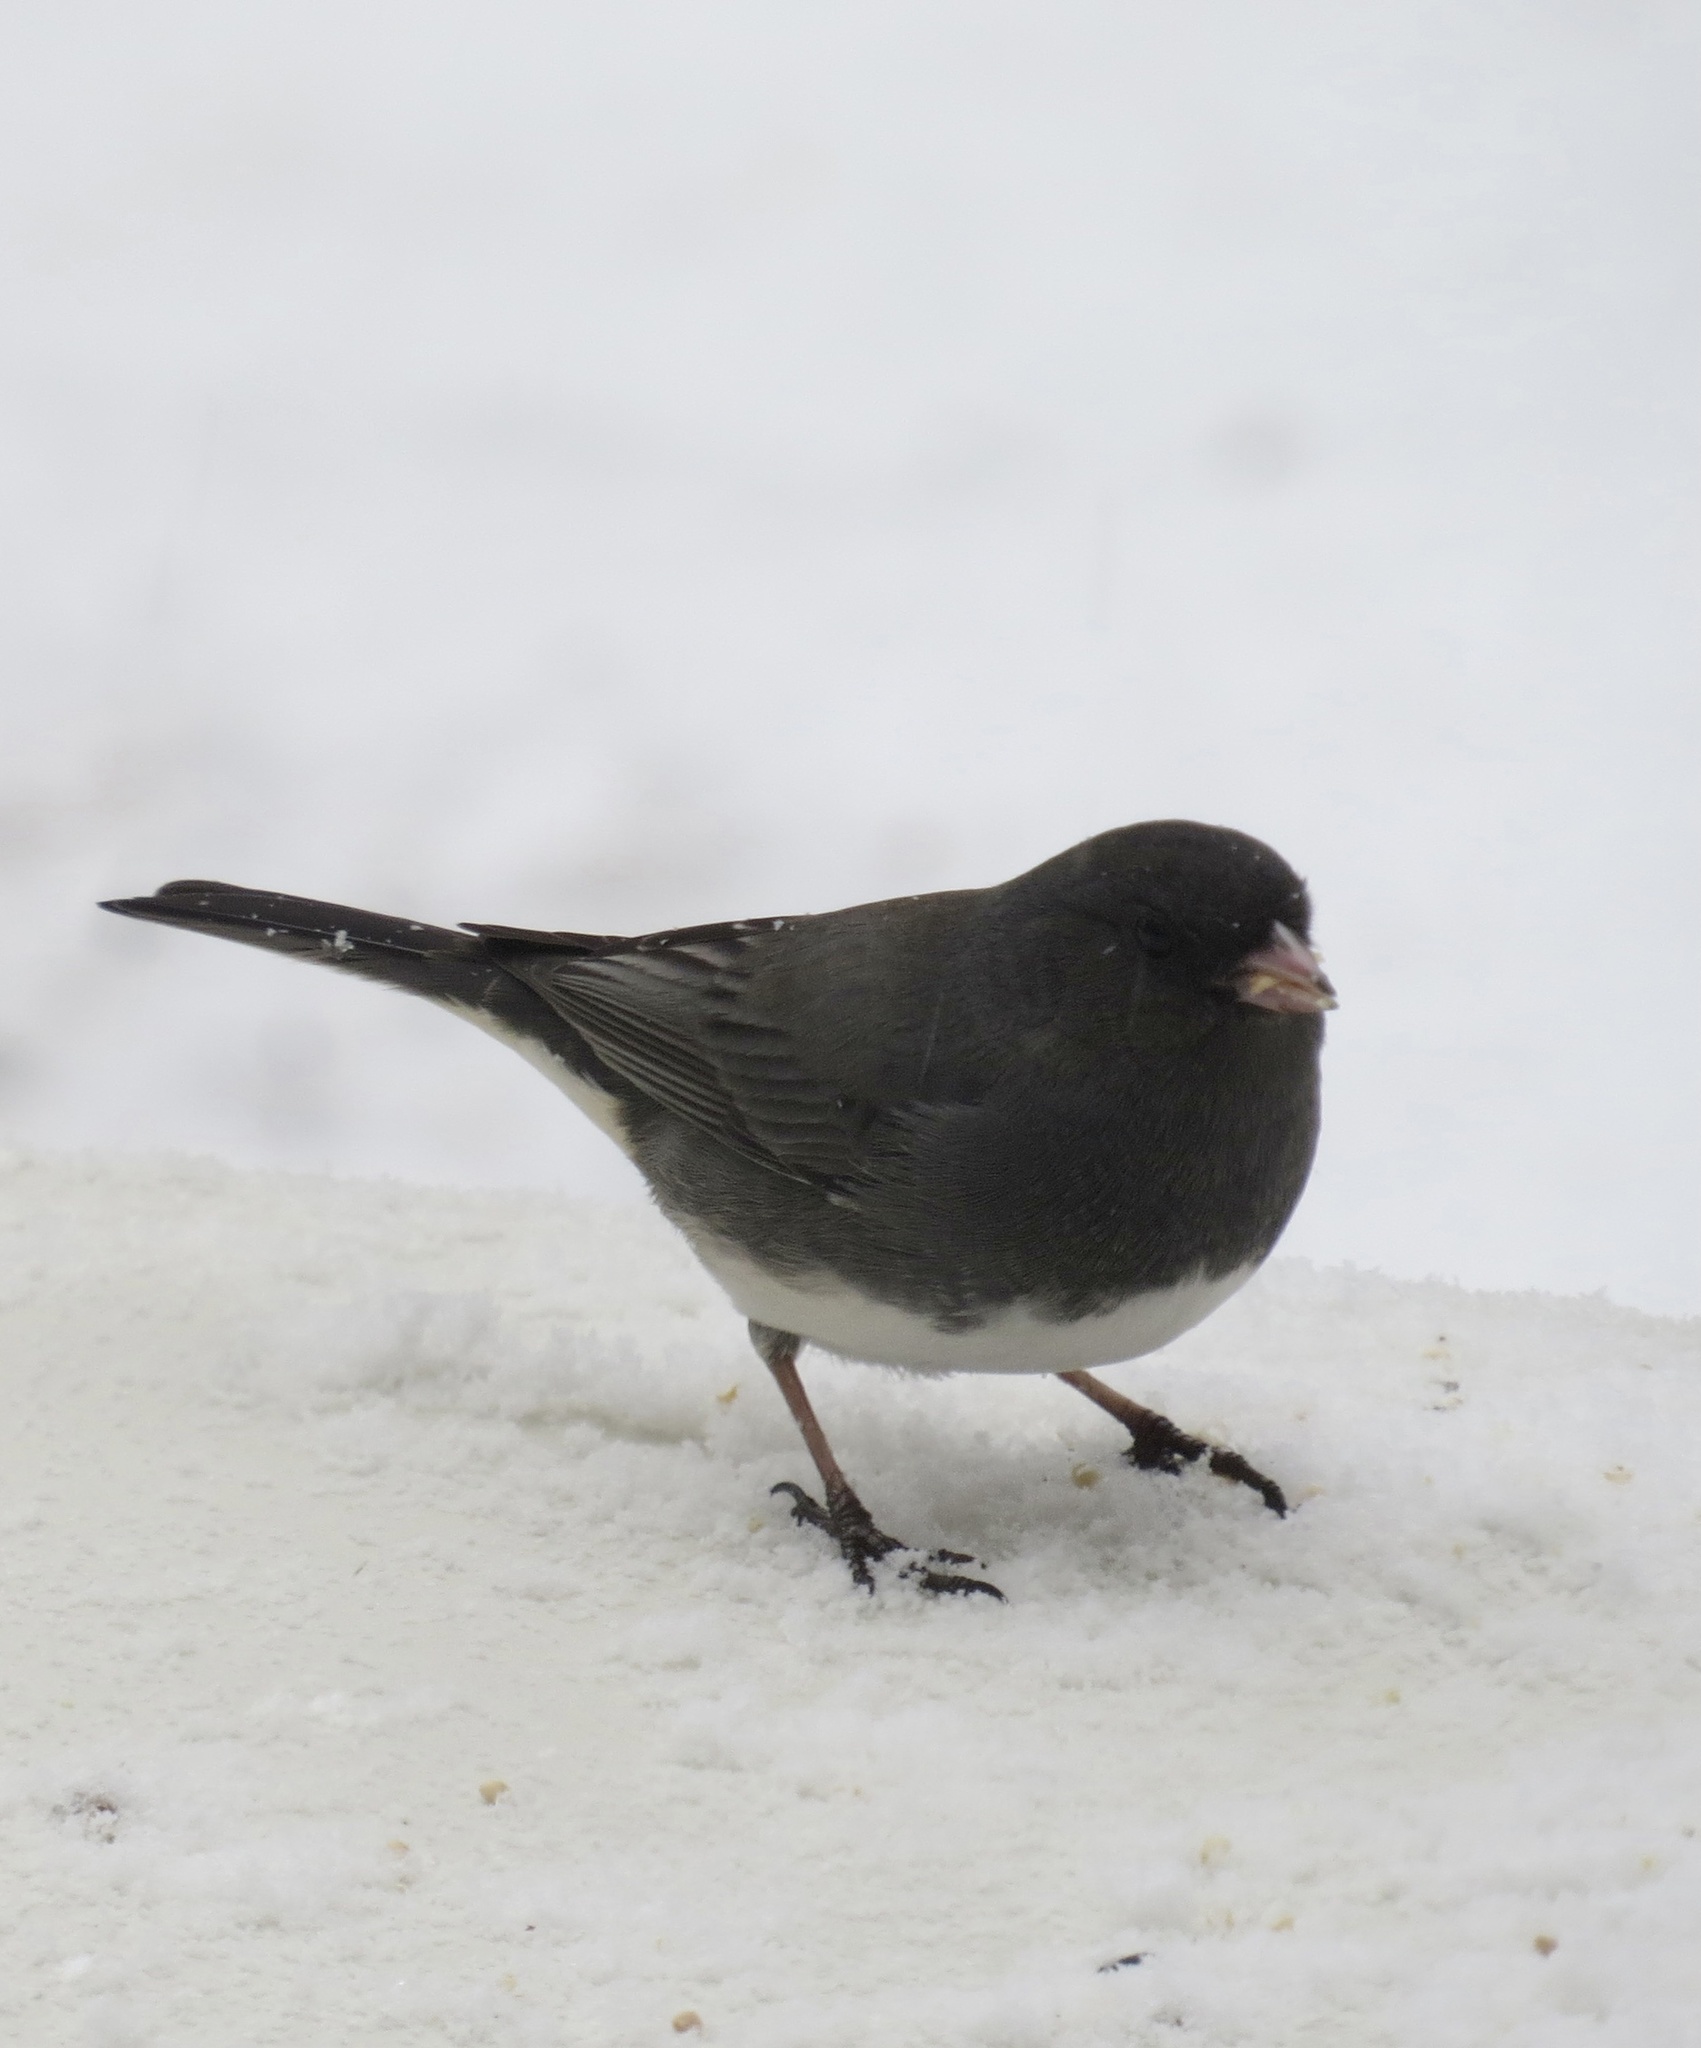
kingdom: Animalia
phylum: Chordata
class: Aves
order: Passeriformes
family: Passerellidae
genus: Junco
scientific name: Junco hyemalis
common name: Dark-eyed junco
